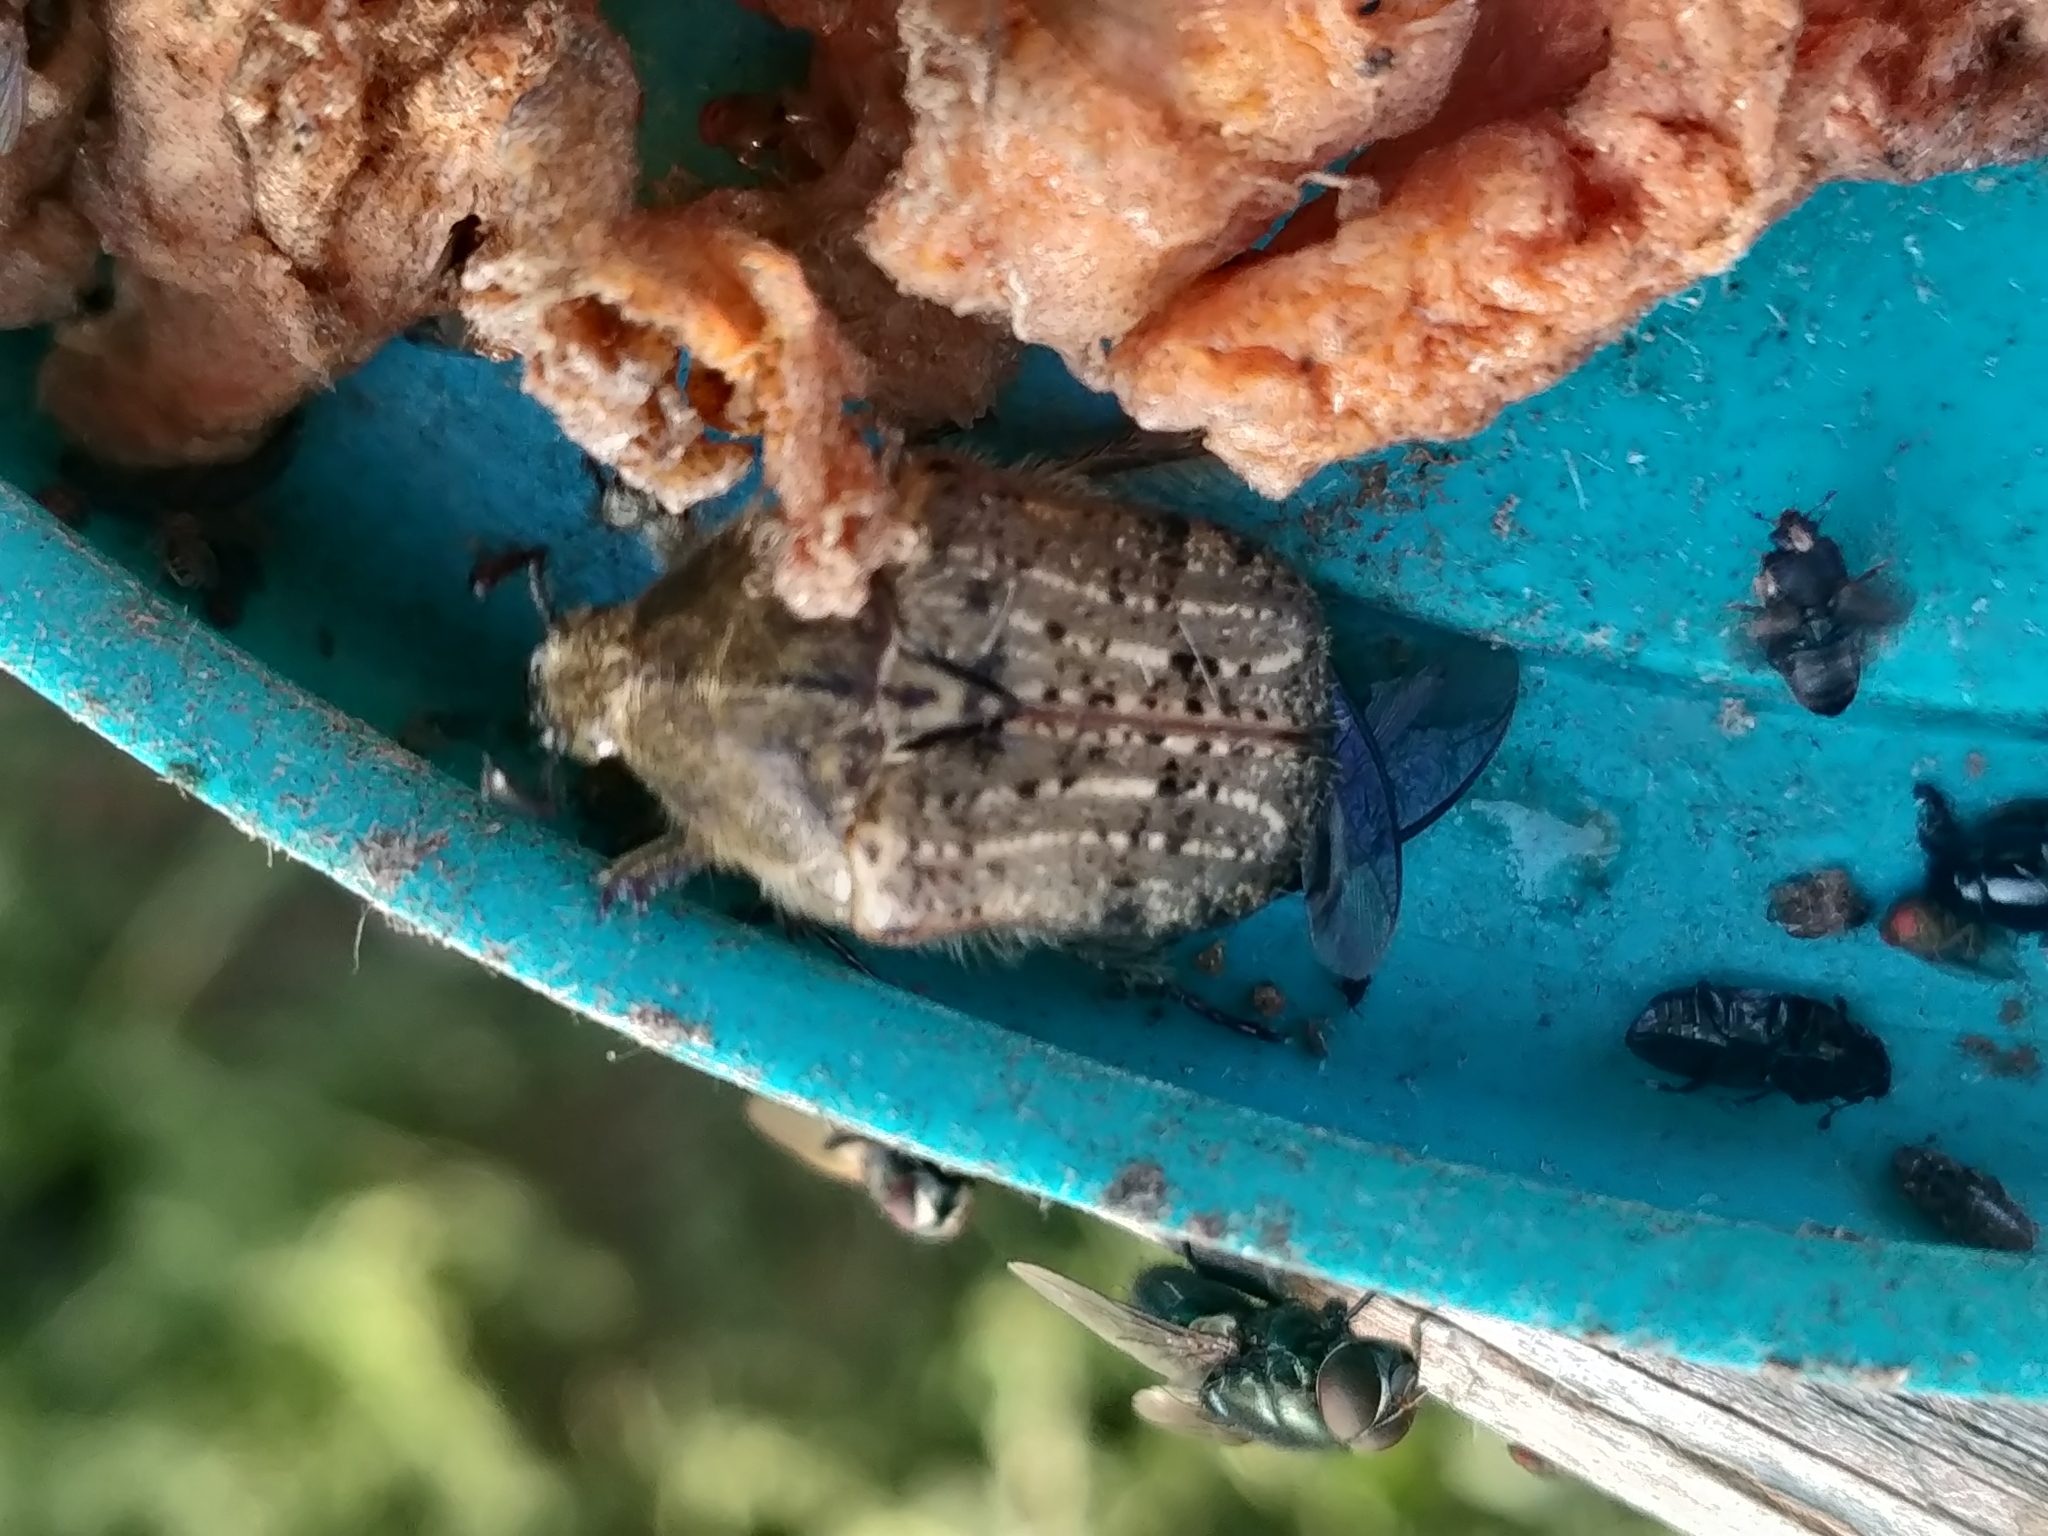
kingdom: Animalia
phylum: Arthropoda
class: Insecta
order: Coleoptera
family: Scarabaeidae
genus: Euphoria
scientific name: Euphoria inda
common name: Bumble flower beetle
